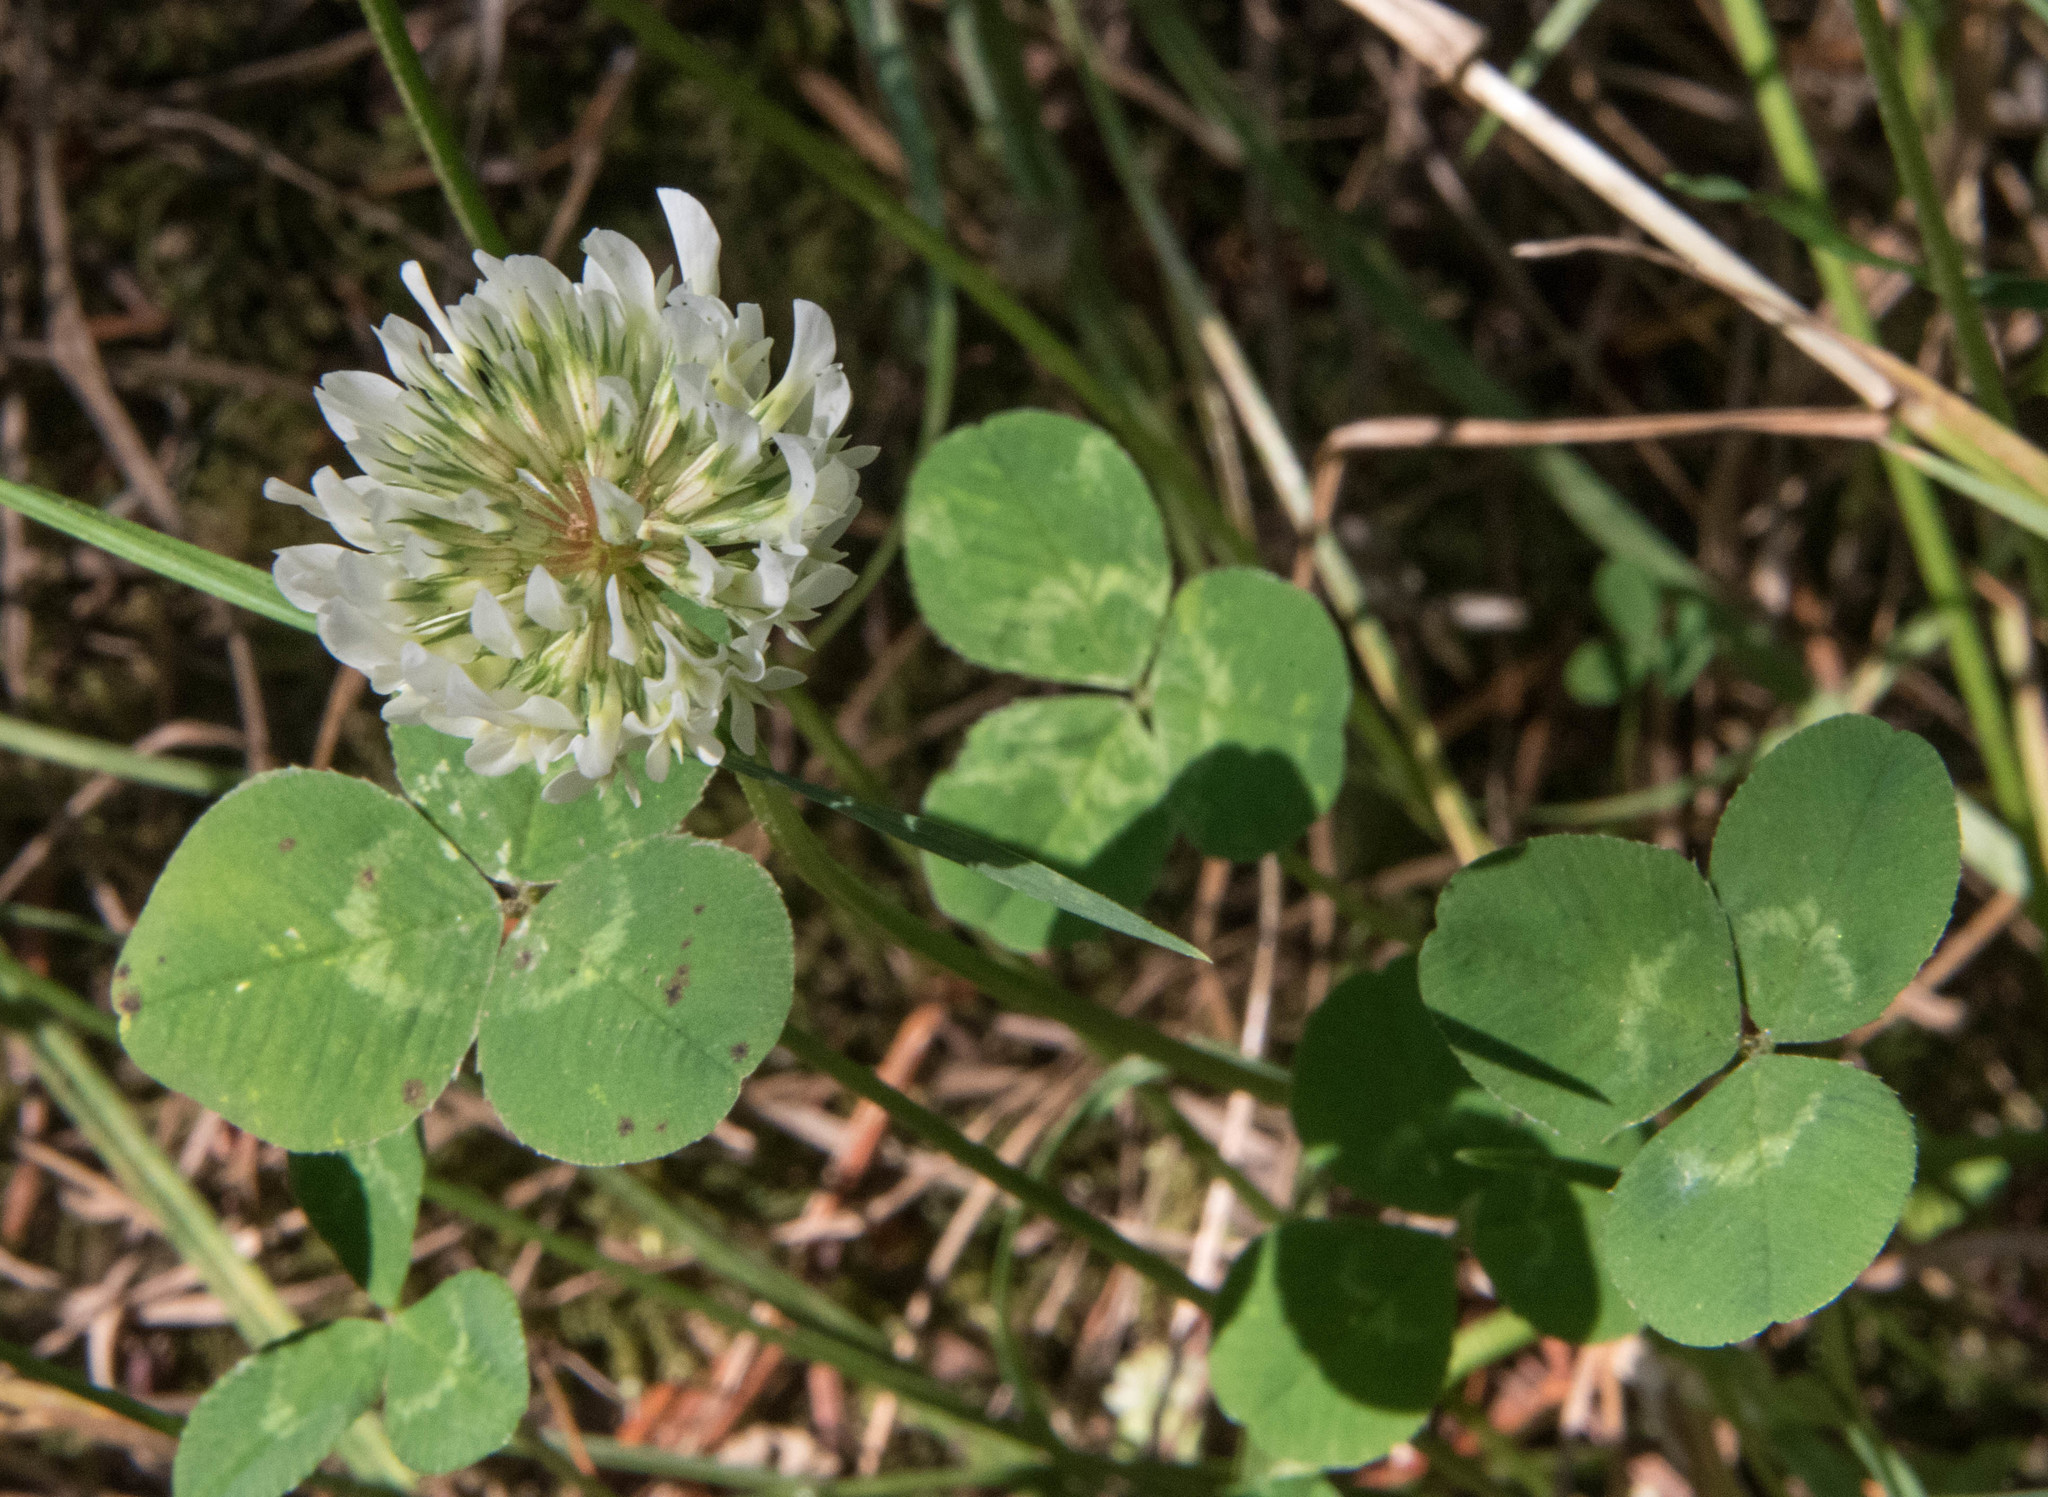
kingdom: Plantae
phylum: Tracheophyta
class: Magnoliopsida
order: Fabales
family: Fabaceae
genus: Trifolium
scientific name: Trifolium repens
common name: White clover
